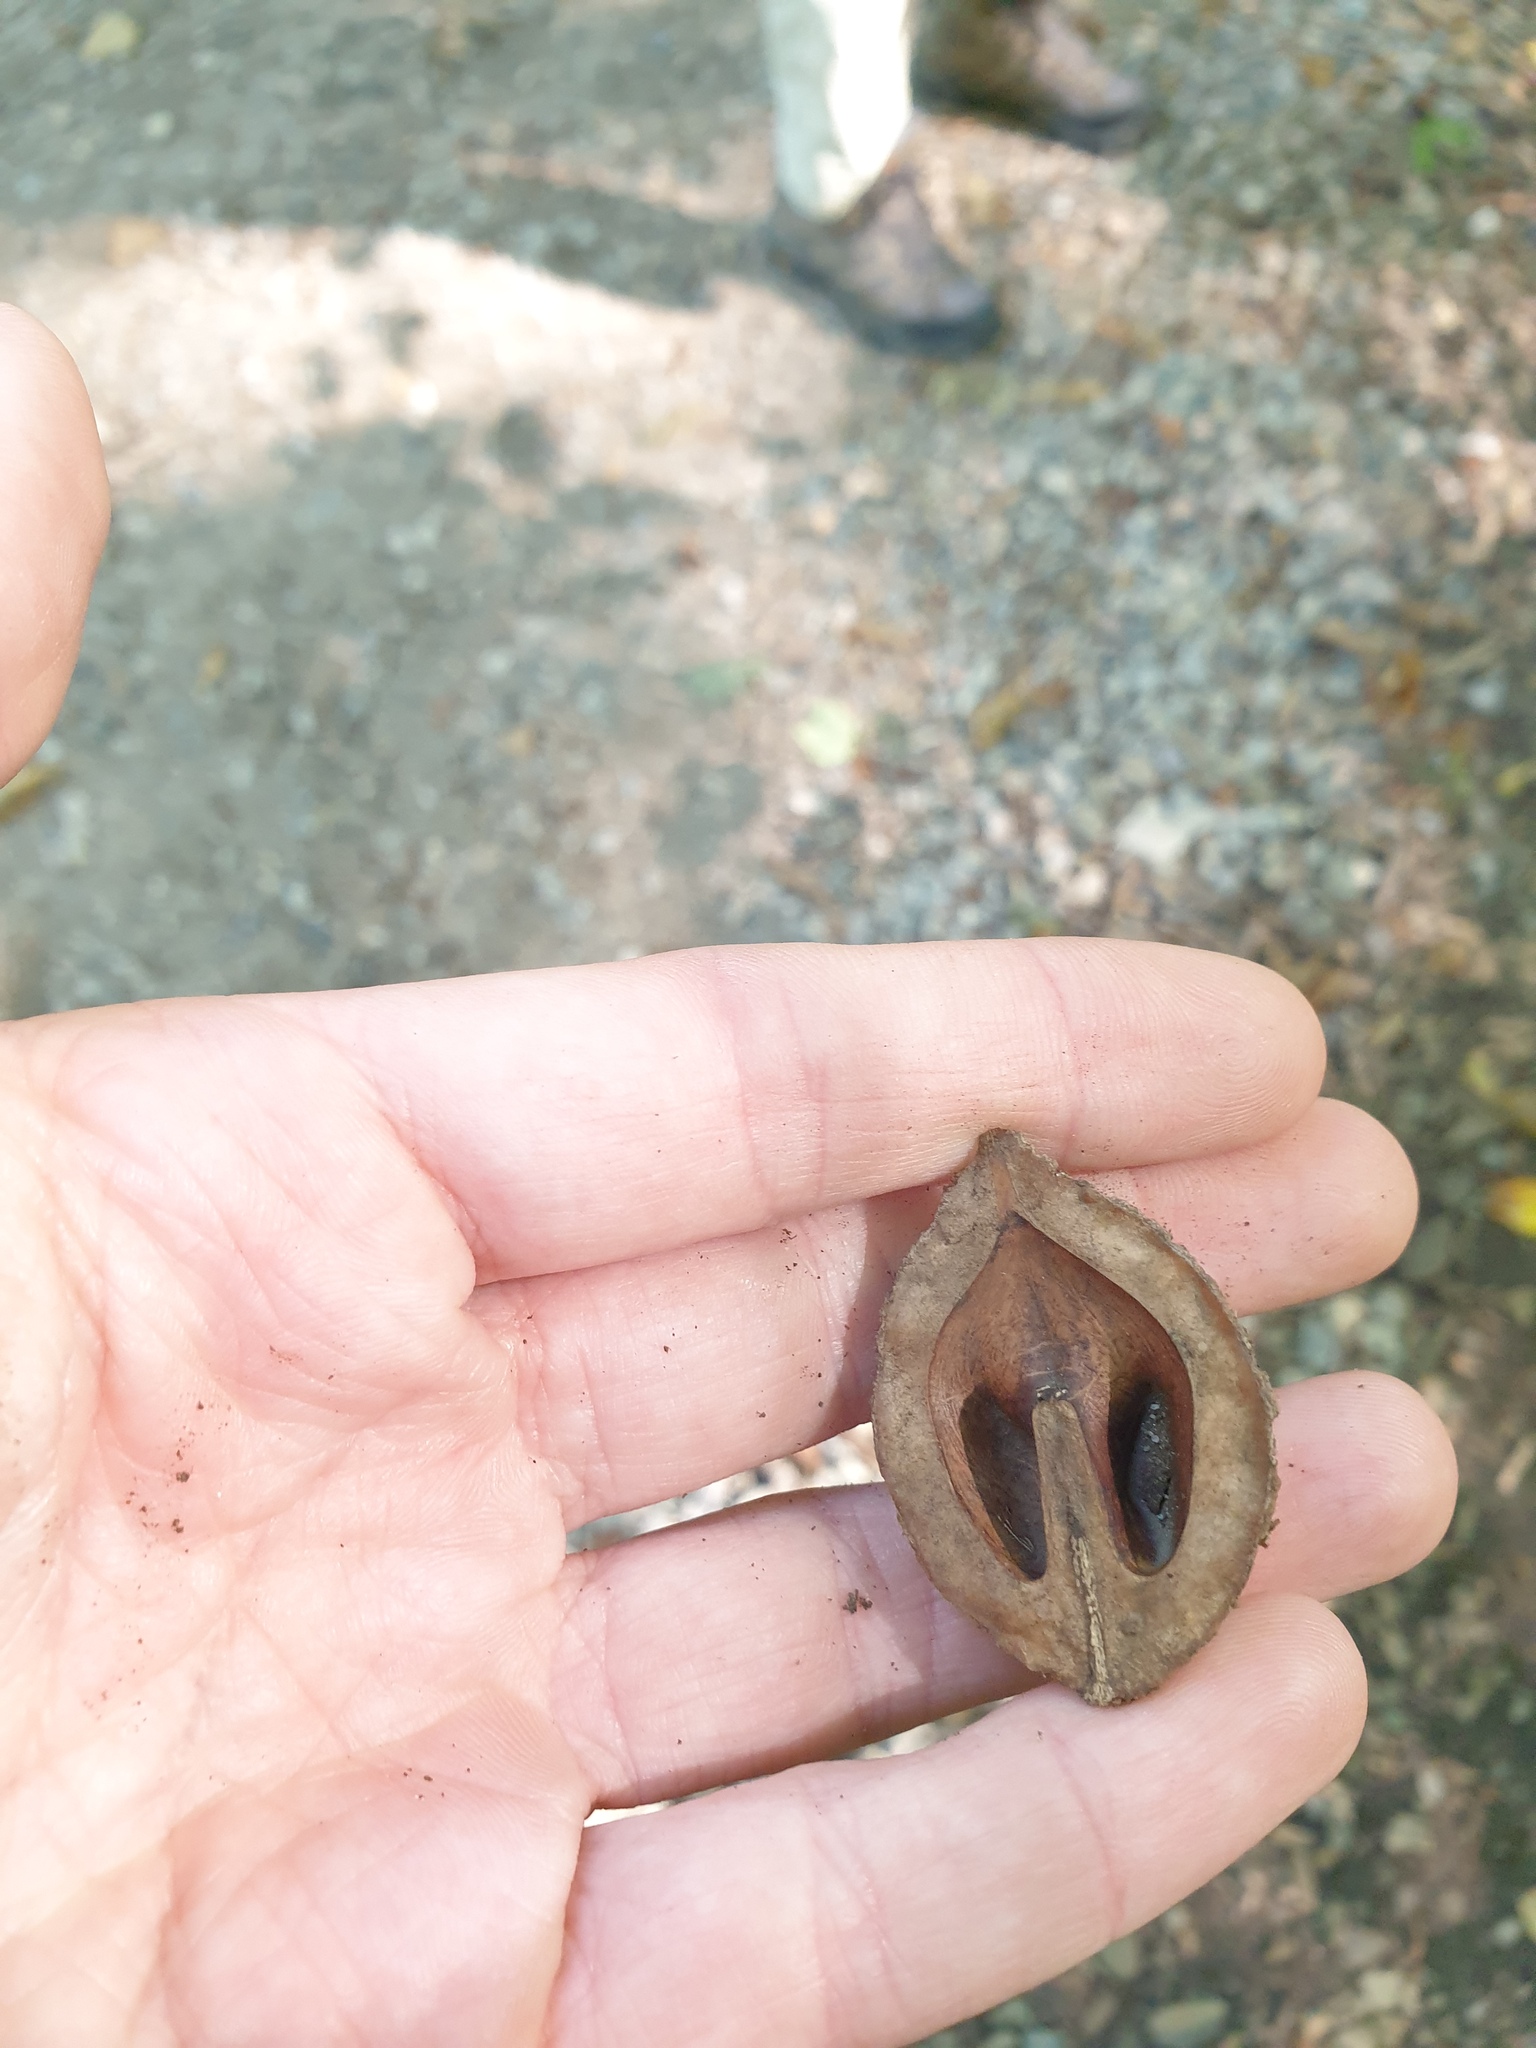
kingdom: Plantae
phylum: Tracheophyta
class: Magnoliopsida
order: Fagales
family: Juglandaceae
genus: Juglans
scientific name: Juglans cinerea
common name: Butternut
